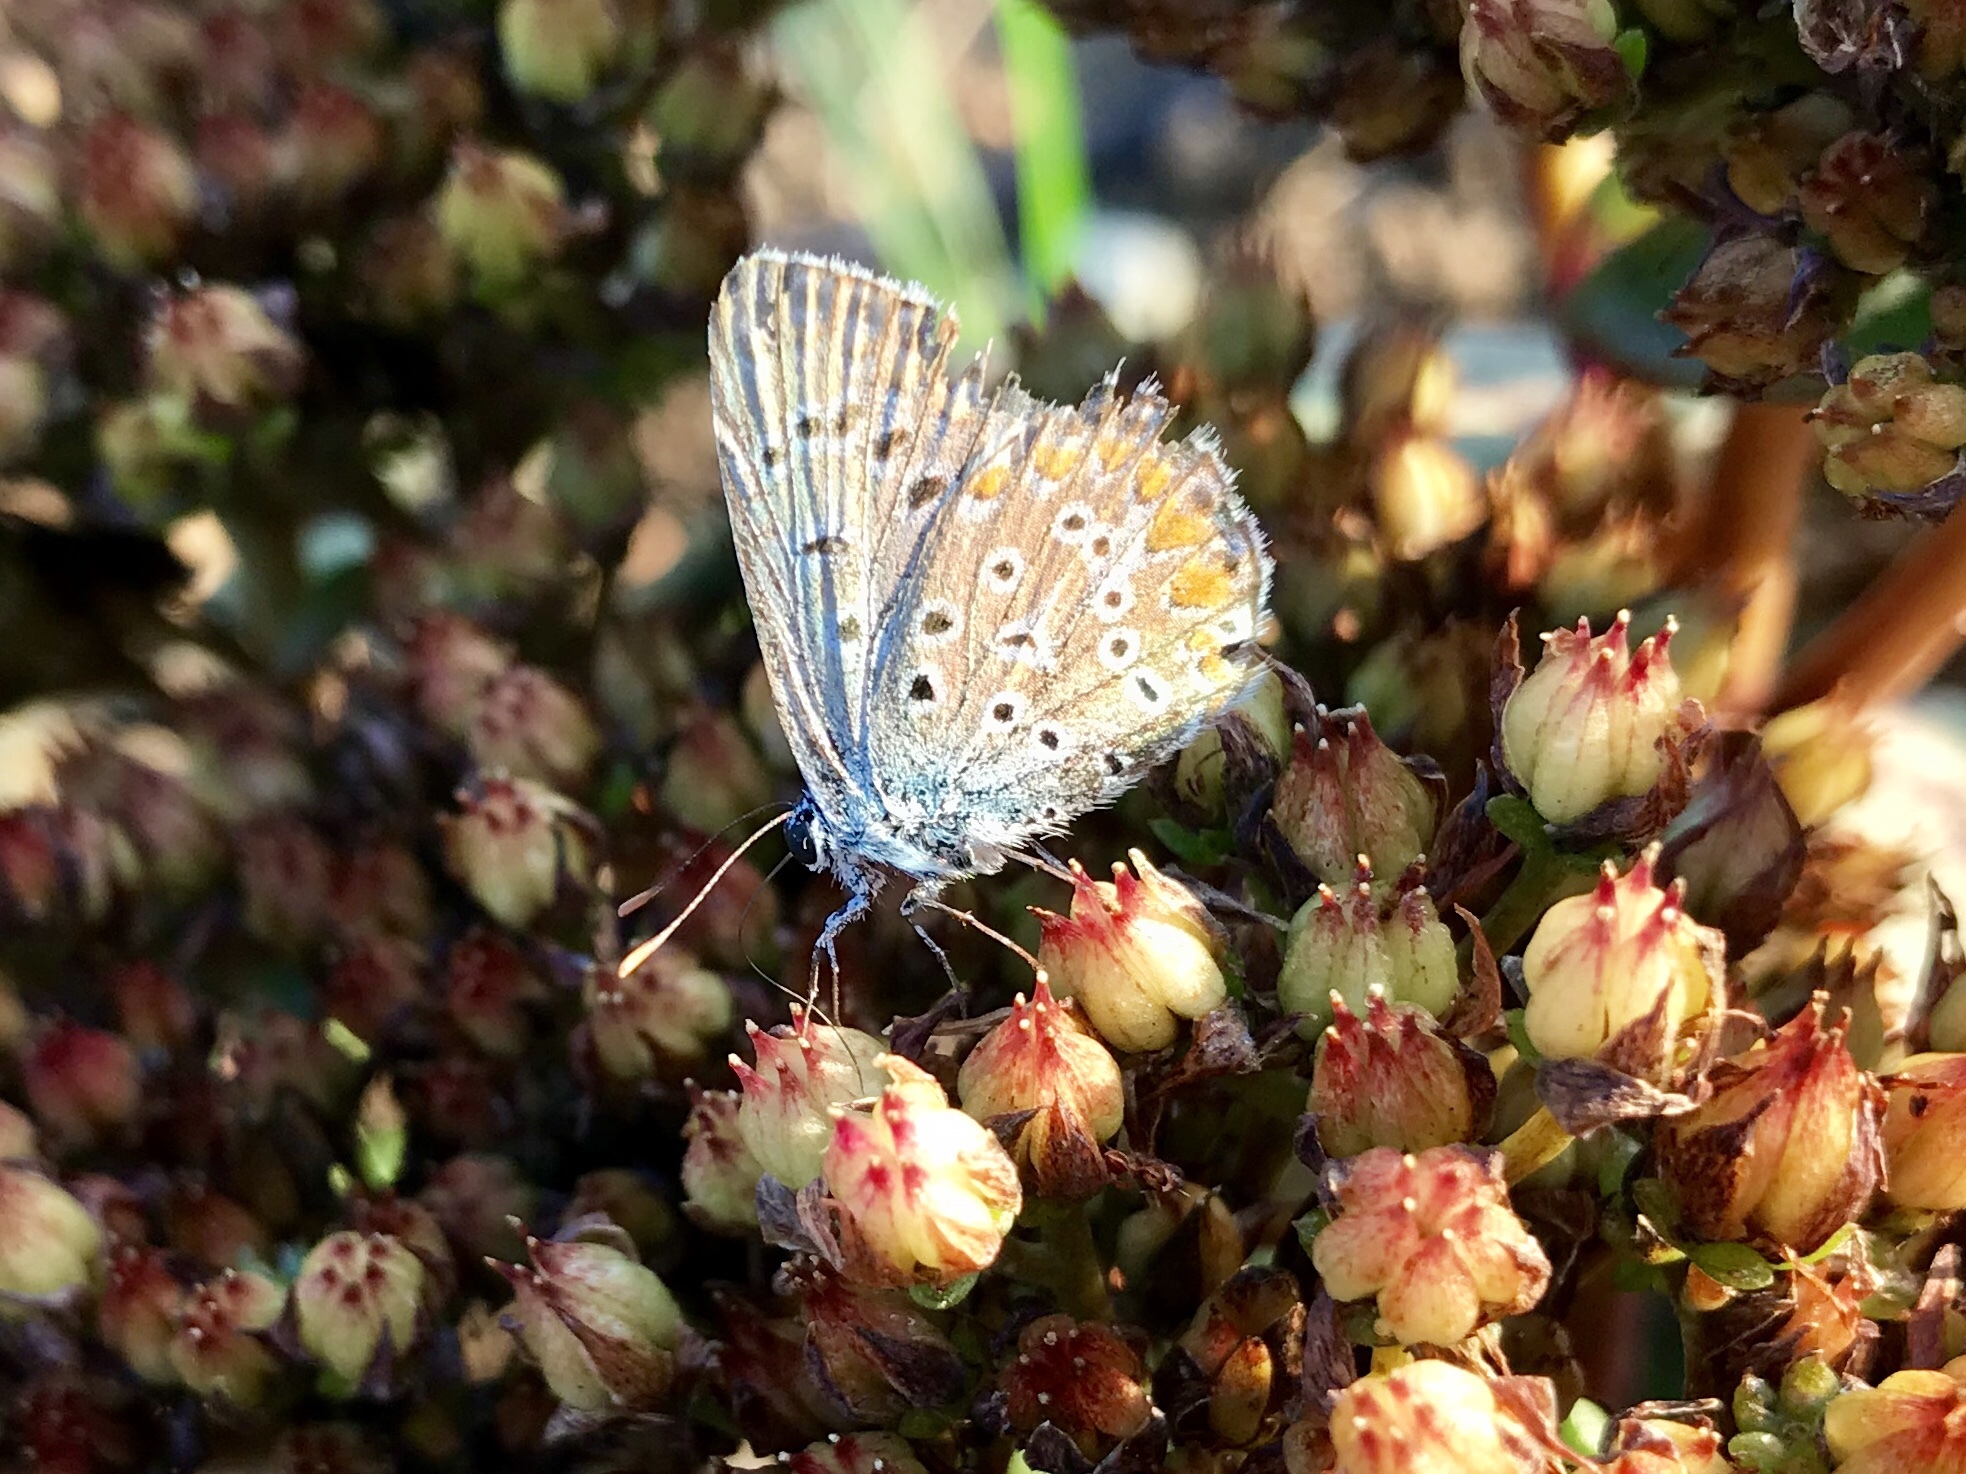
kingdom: Animalia
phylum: Arthropoda
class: Insecta
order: Lepidoptera
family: Lycaenidae
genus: Polyommatus
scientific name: Polyommatus icarus
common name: Common blue
